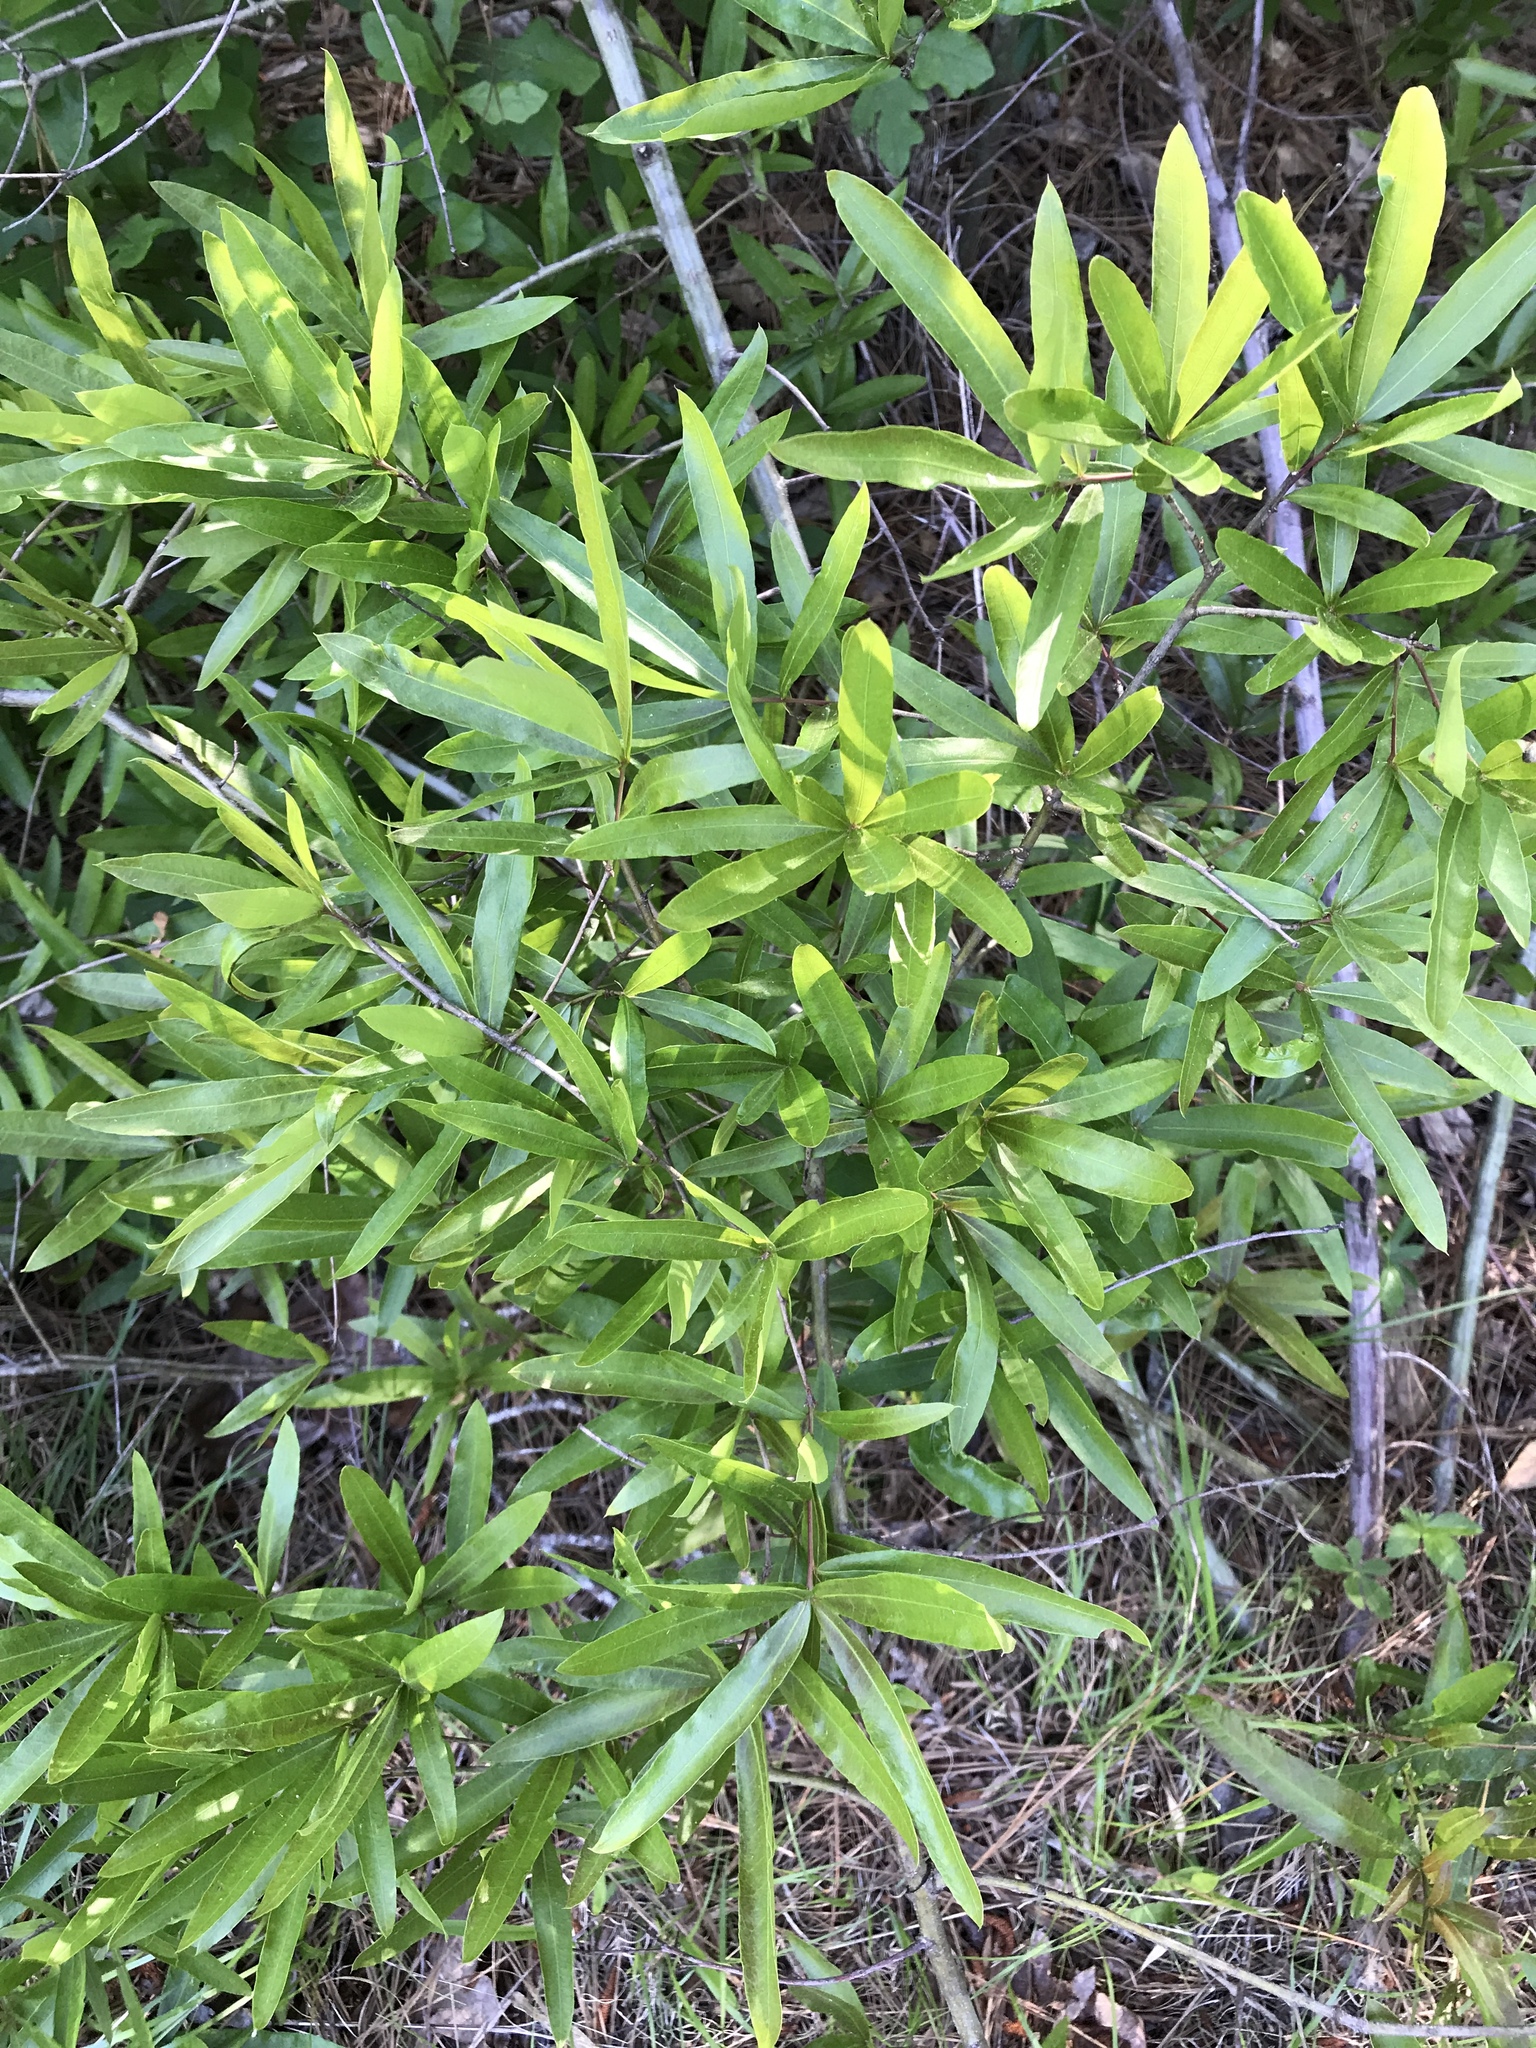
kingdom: Plantae
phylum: Tracheophyta
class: Magnoliopsida
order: Fagales
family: Fagaceae
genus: Quercus
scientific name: Quercus phellos
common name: Willow oak
